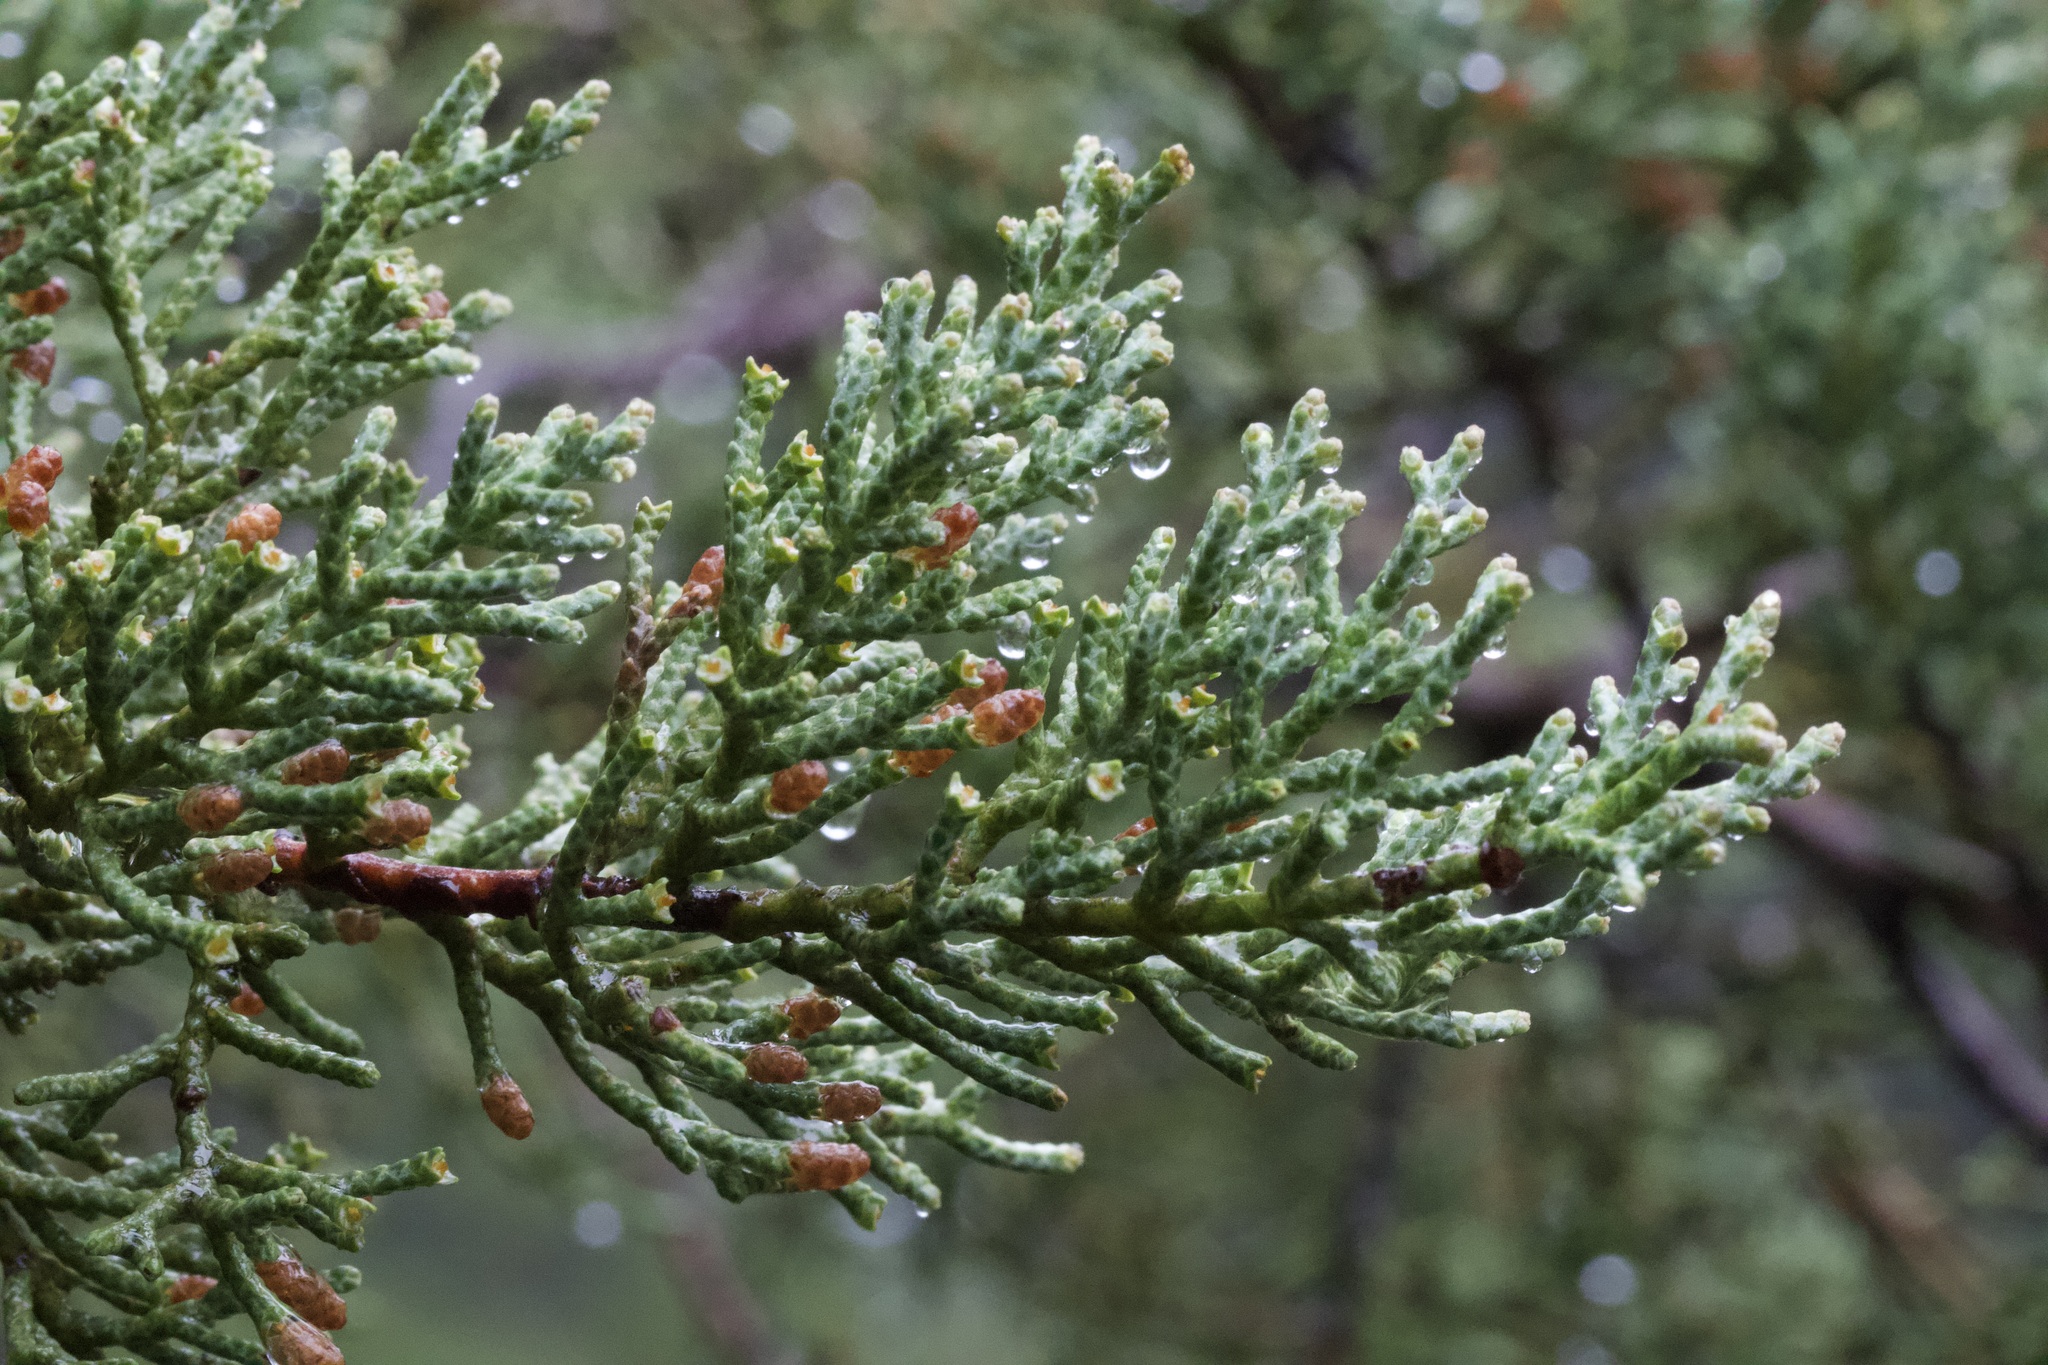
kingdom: Plantae
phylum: Tracheophyta
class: Pinopsida
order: Pinales
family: Cupressaceae
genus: Cupressus
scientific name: Cupressus sargentii
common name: Sargent cypress
